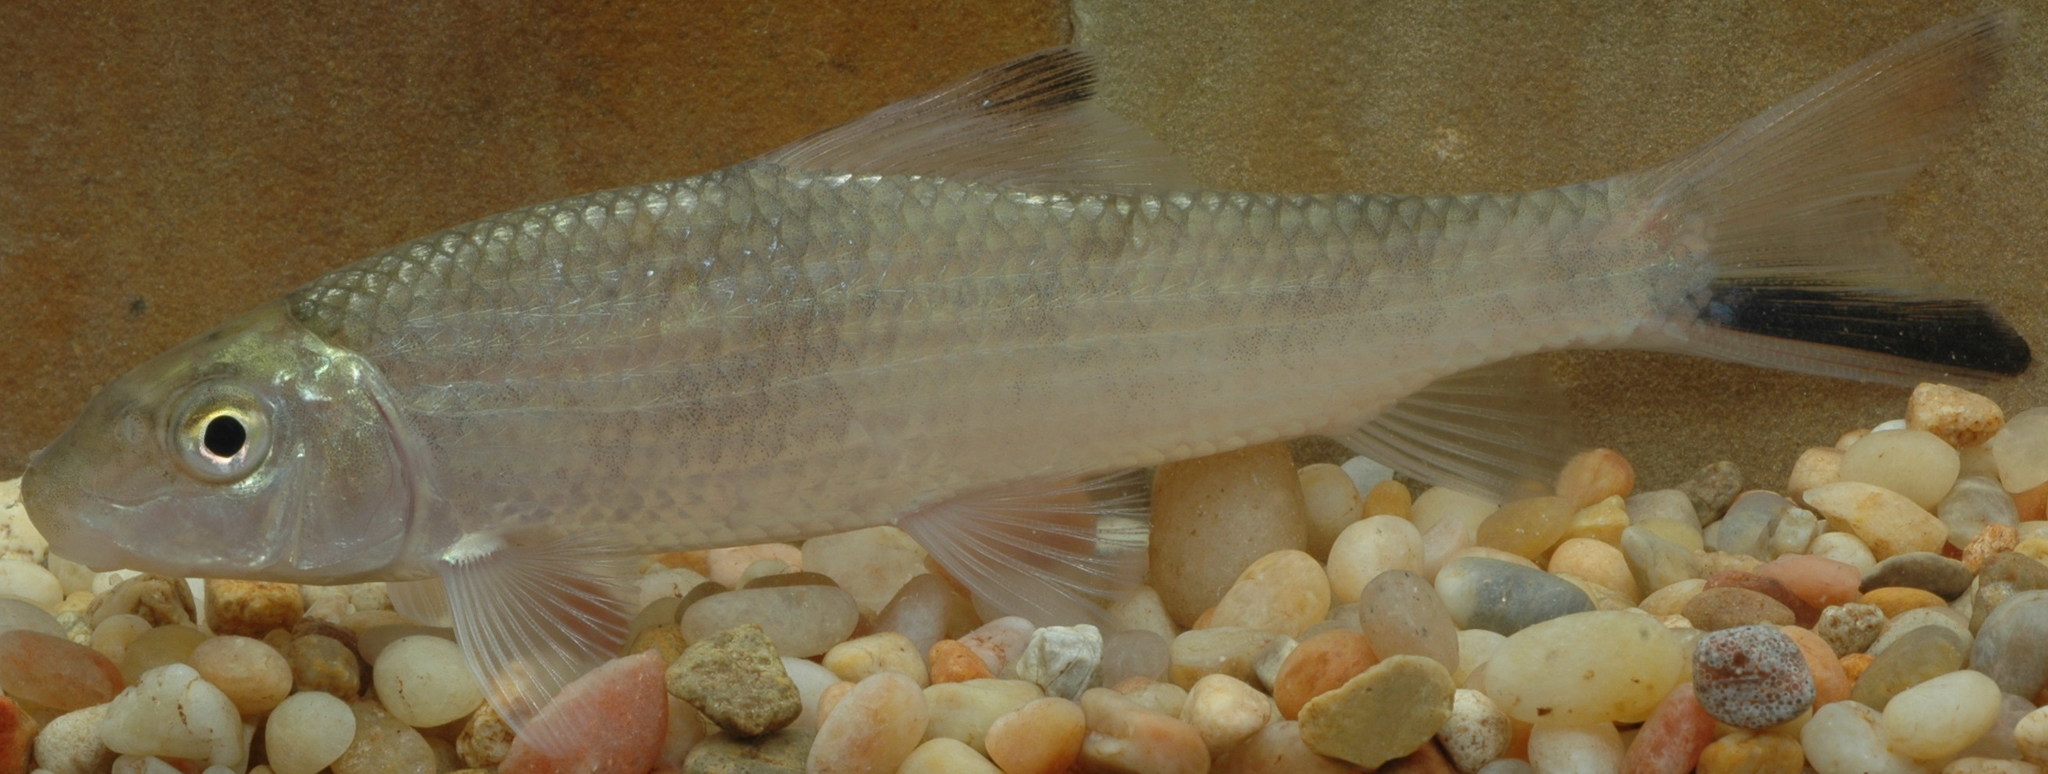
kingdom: Animalia
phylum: Chordata
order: Cypriniformes
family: Catostomidae
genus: Moxostoma
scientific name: Moxostoma poecilurum
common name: Blacktail redhorse
